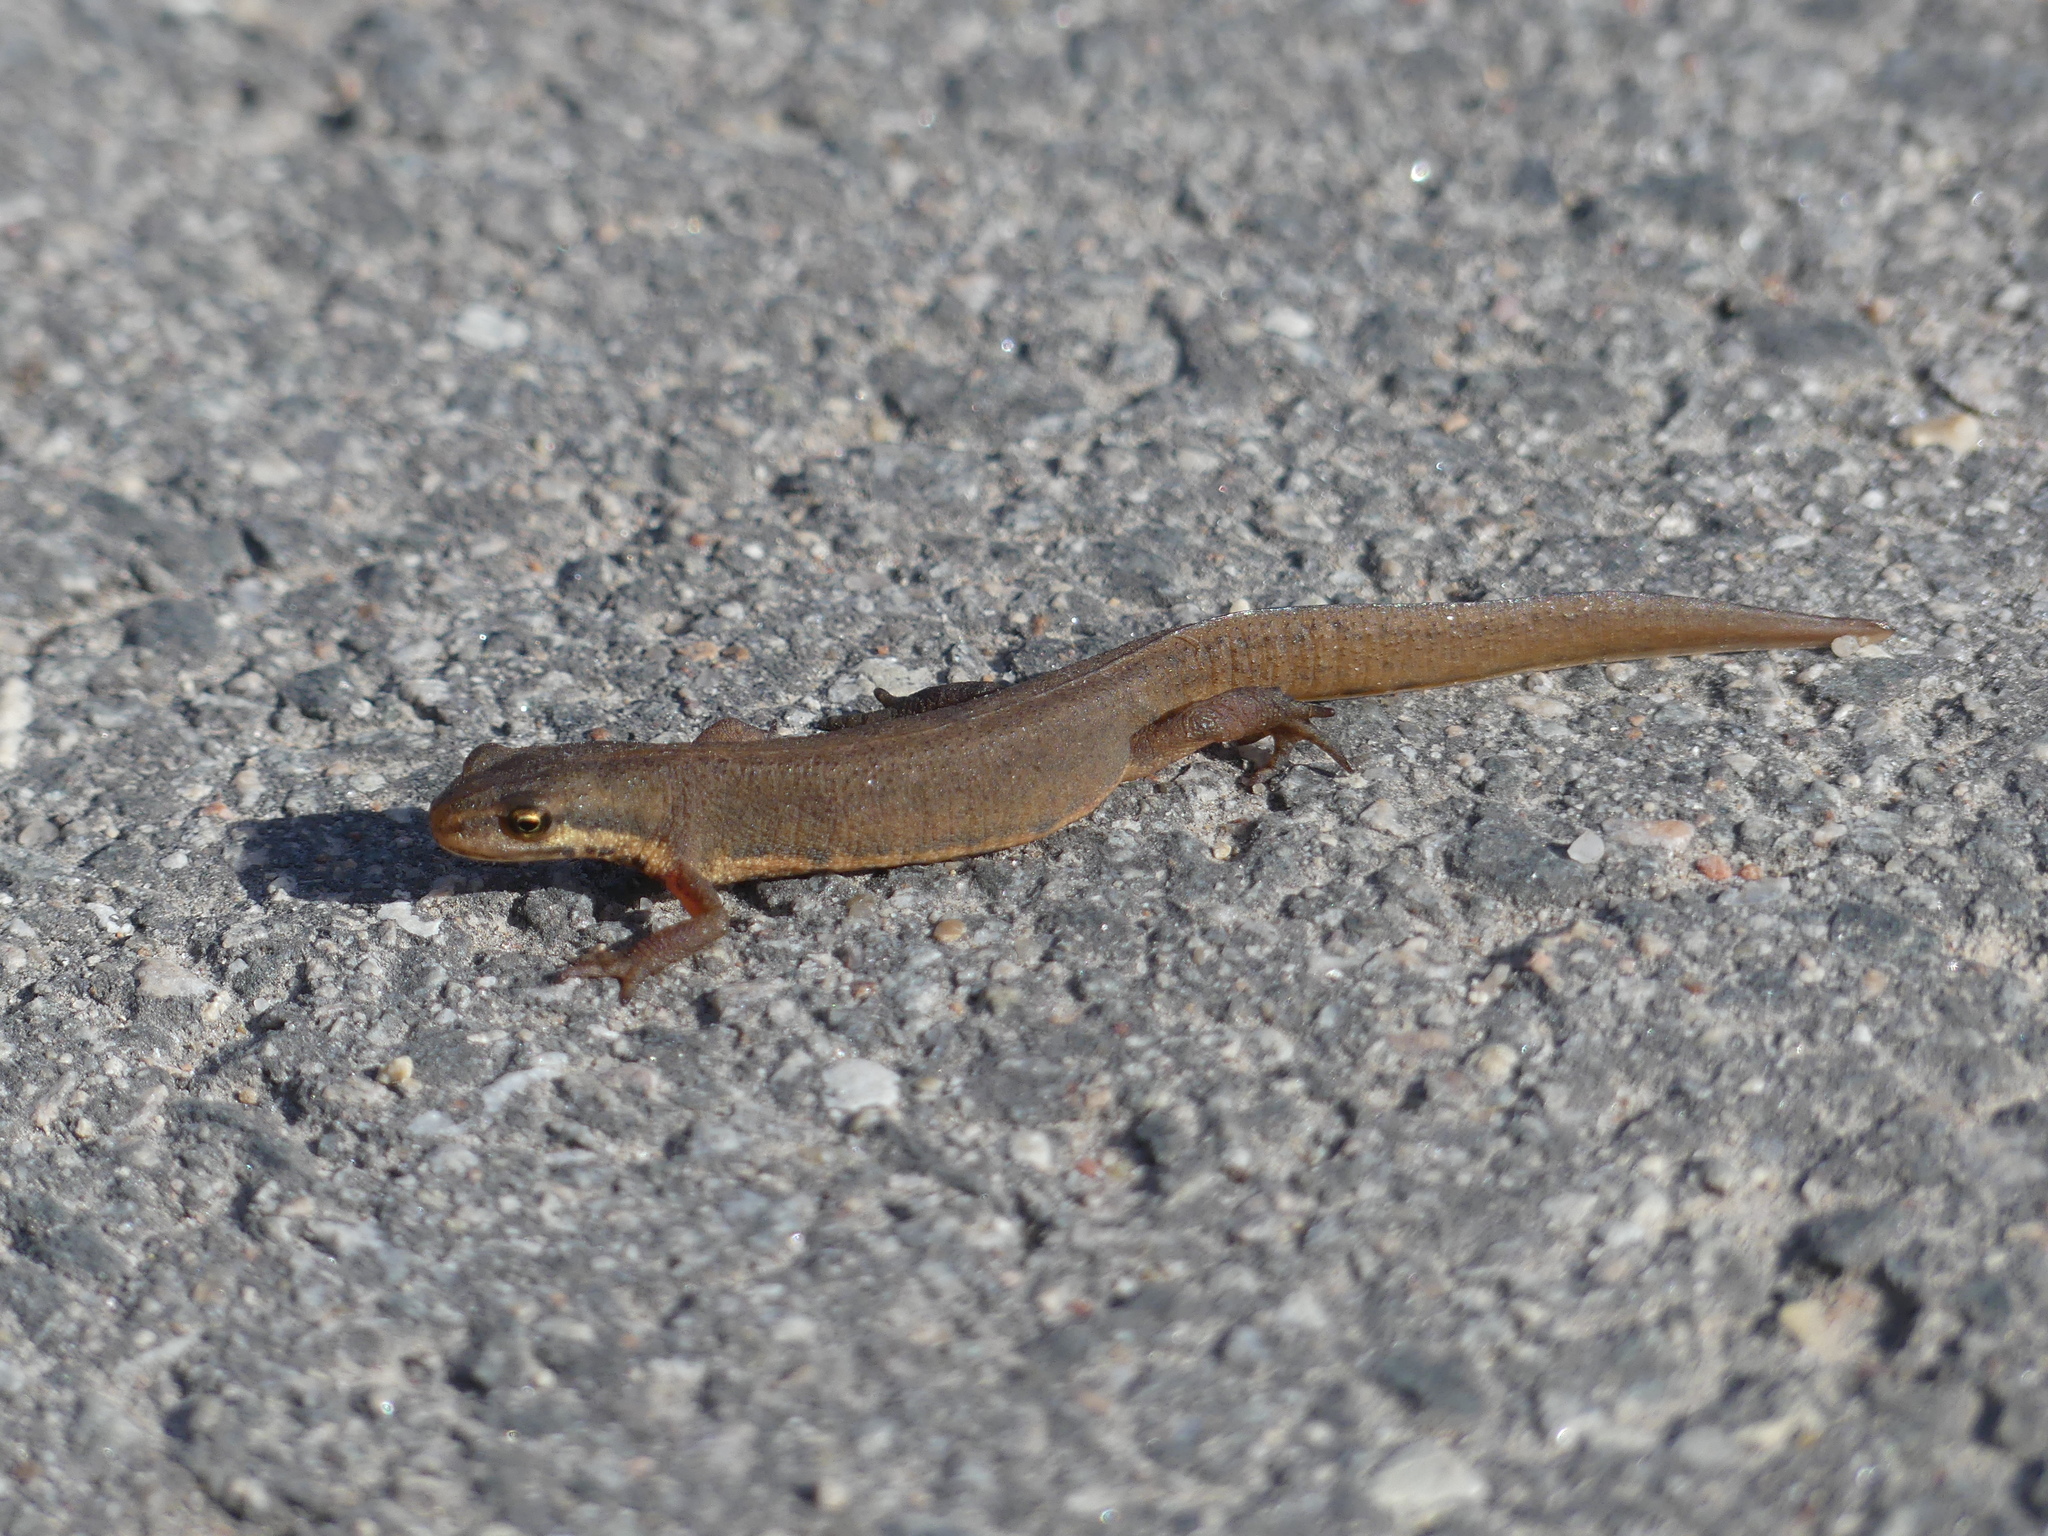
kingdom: Animalia
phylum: Chordata
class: Amphibia
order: Caudata
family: Salamandridae
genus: Lissotriton
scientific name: Lissotriton vulgaris
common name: Smooth newt
